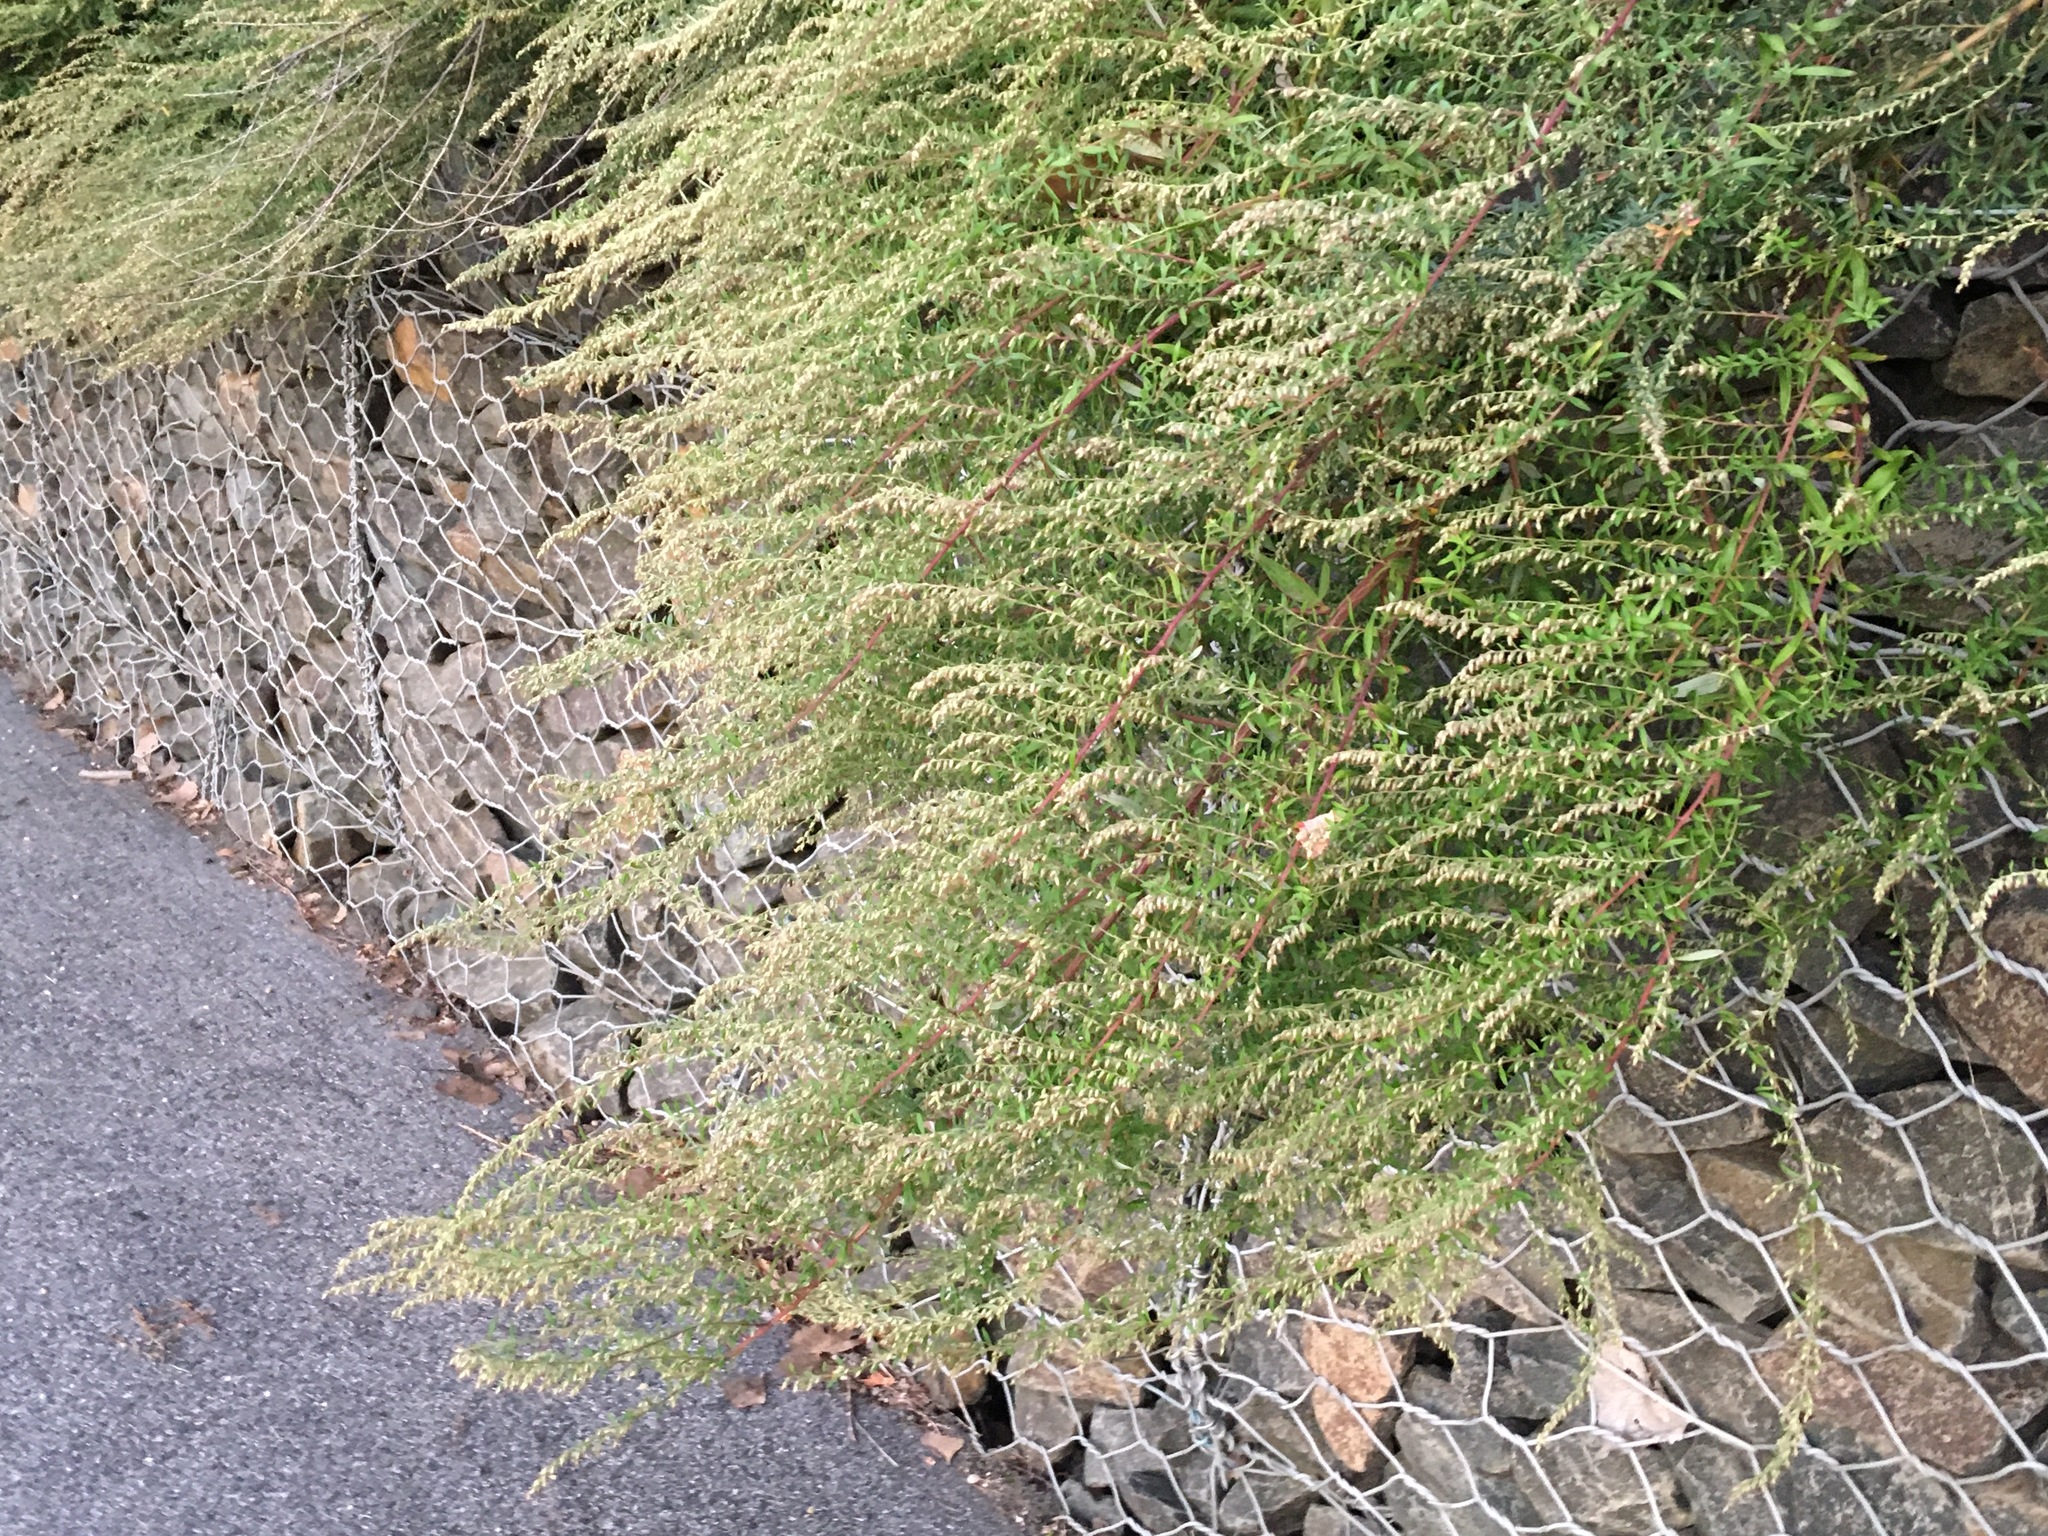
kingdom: Plantae
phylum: Tracheophyta
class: Magnoliopsida
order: Asterales
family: Asteraceae
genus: Artemisia
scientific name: Artemisia vulgaris
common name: Mugwort
